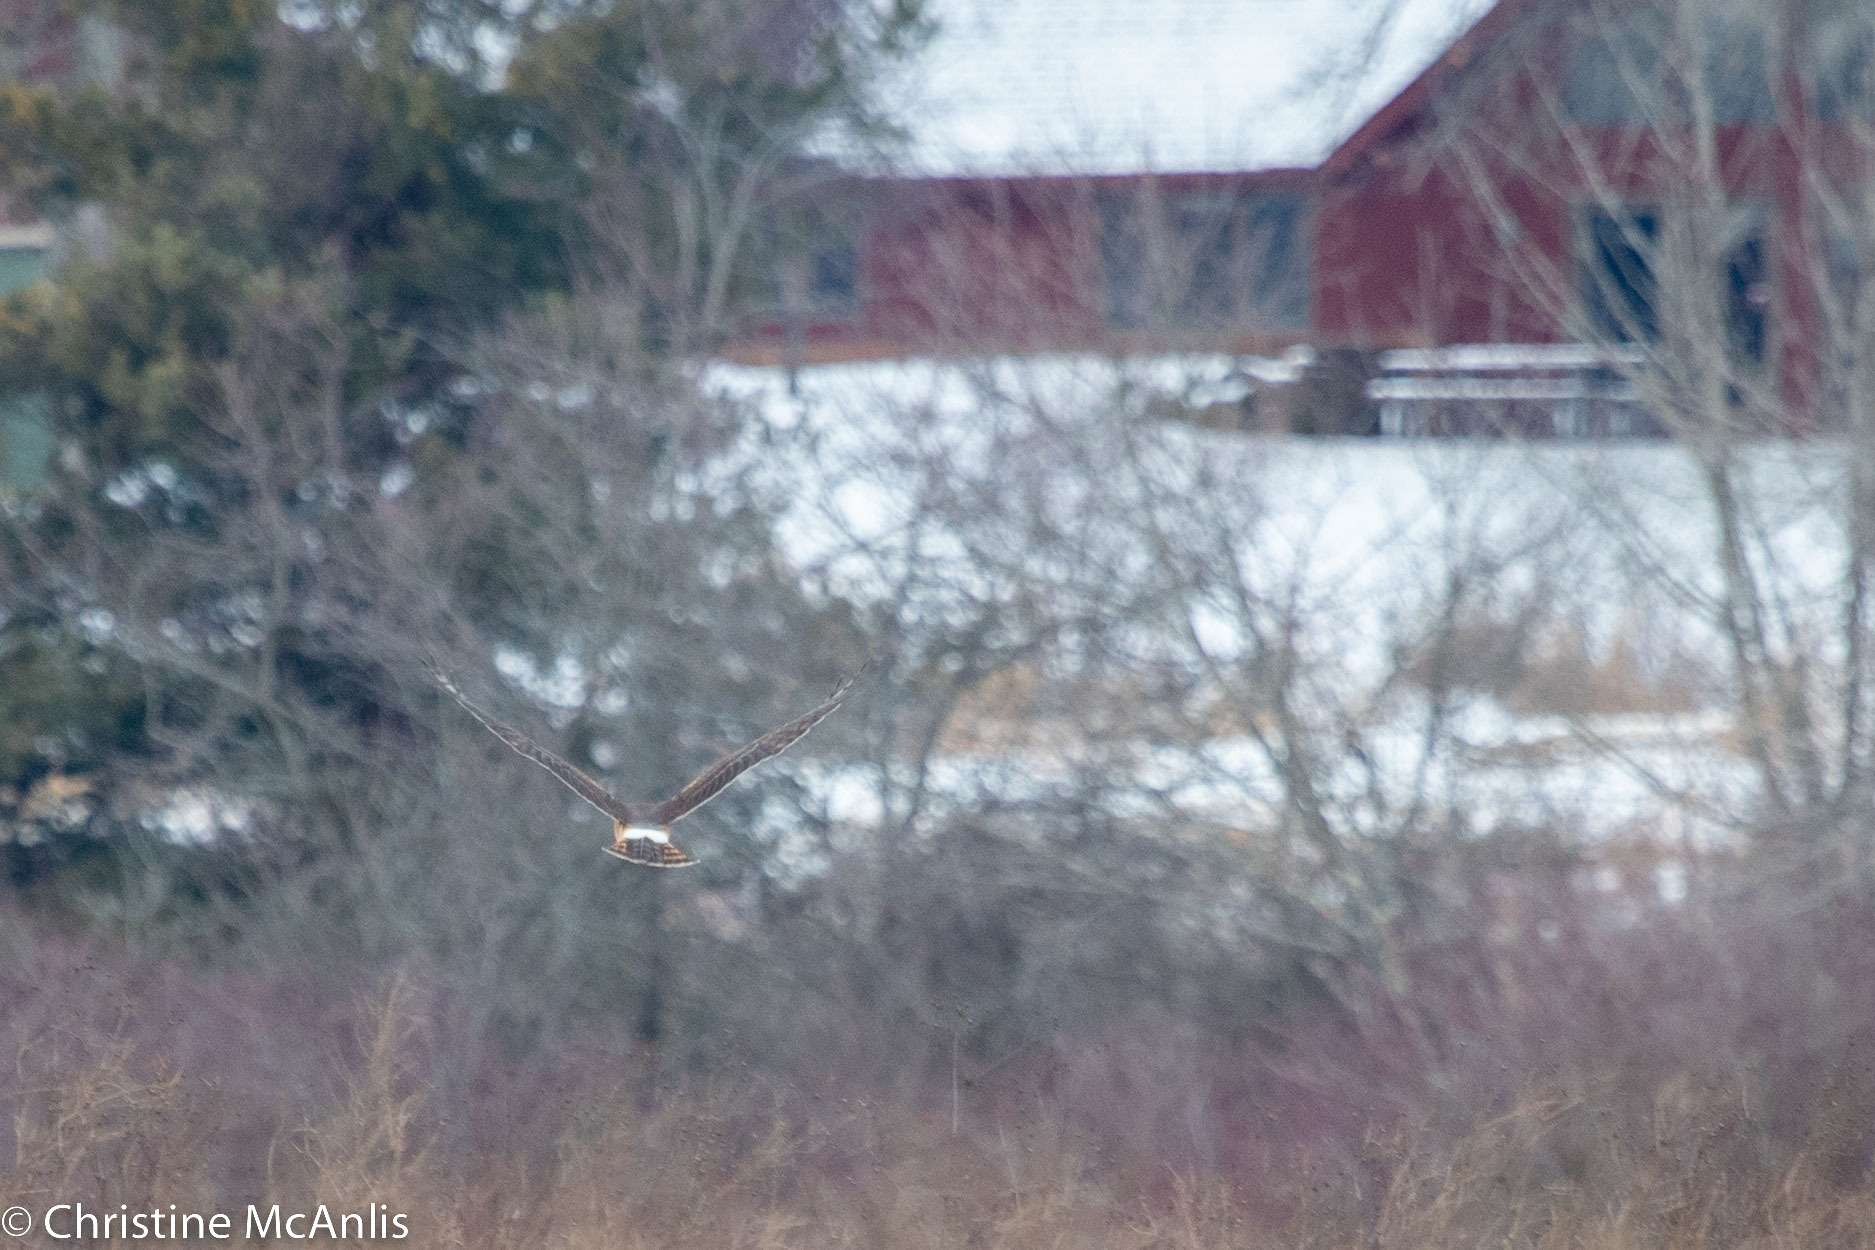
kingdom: Animalia
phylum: Chordata
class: Aves
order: Accipitriformes
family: Accipitridae
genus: Circus
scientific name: Circus cyaneus
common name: Hen harrier
